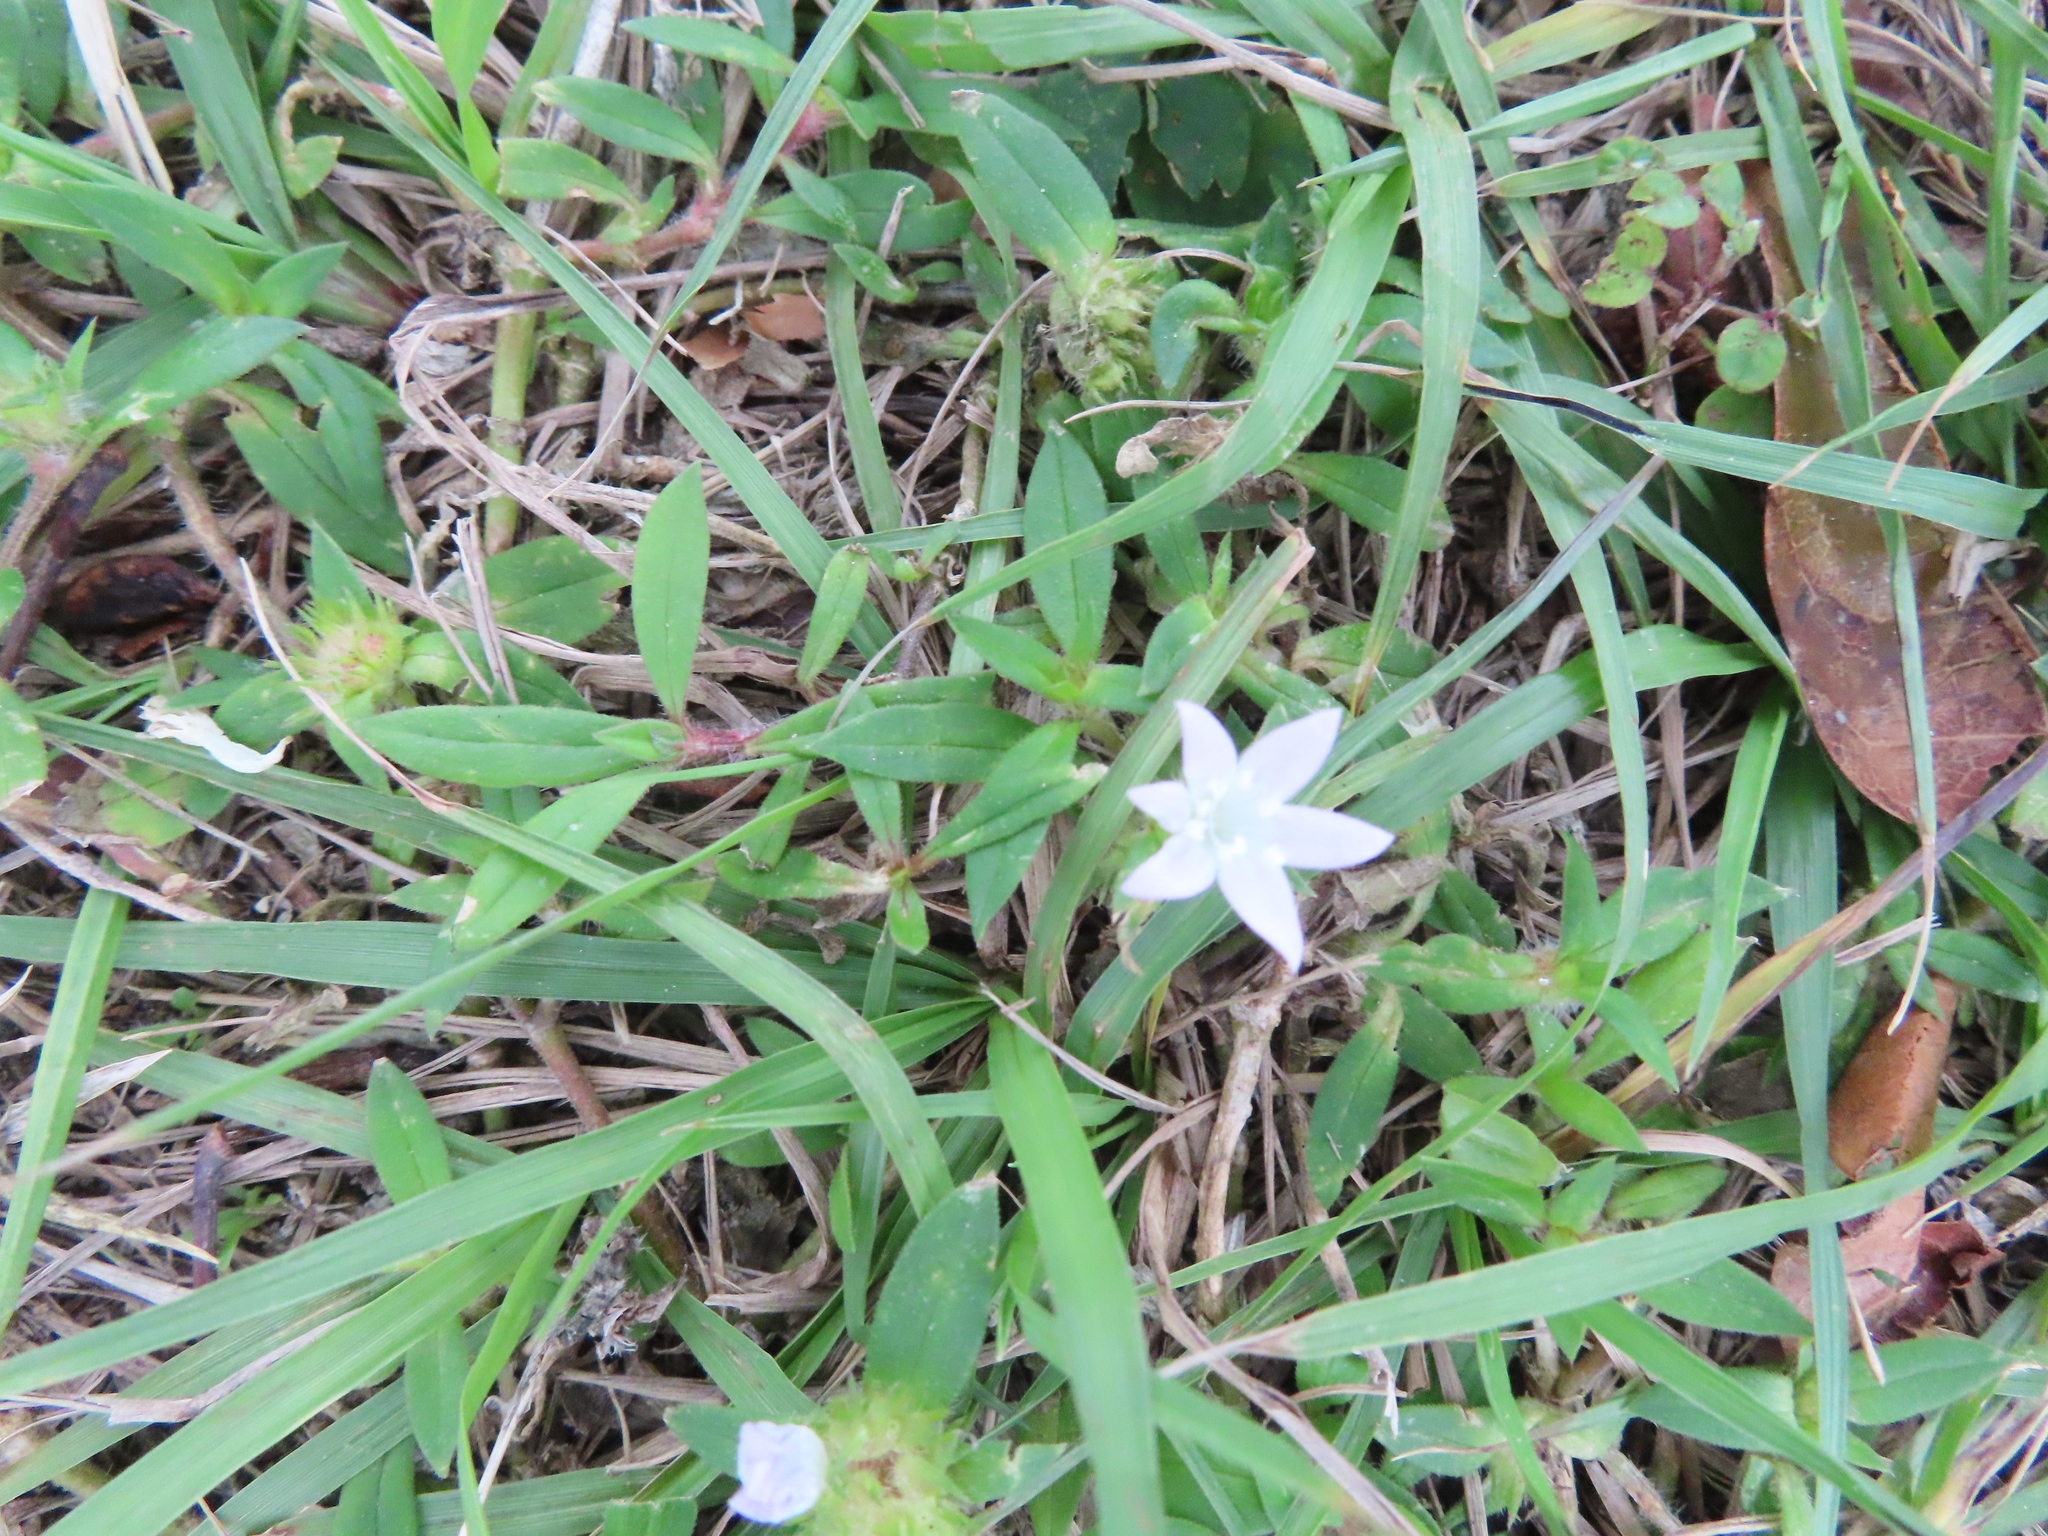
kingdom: Plantae
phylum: Tracheophyta
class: Magnoliopsida
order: Gentianales
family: Rubiaceae
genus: Richardia
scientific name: Richardia grandiflora
